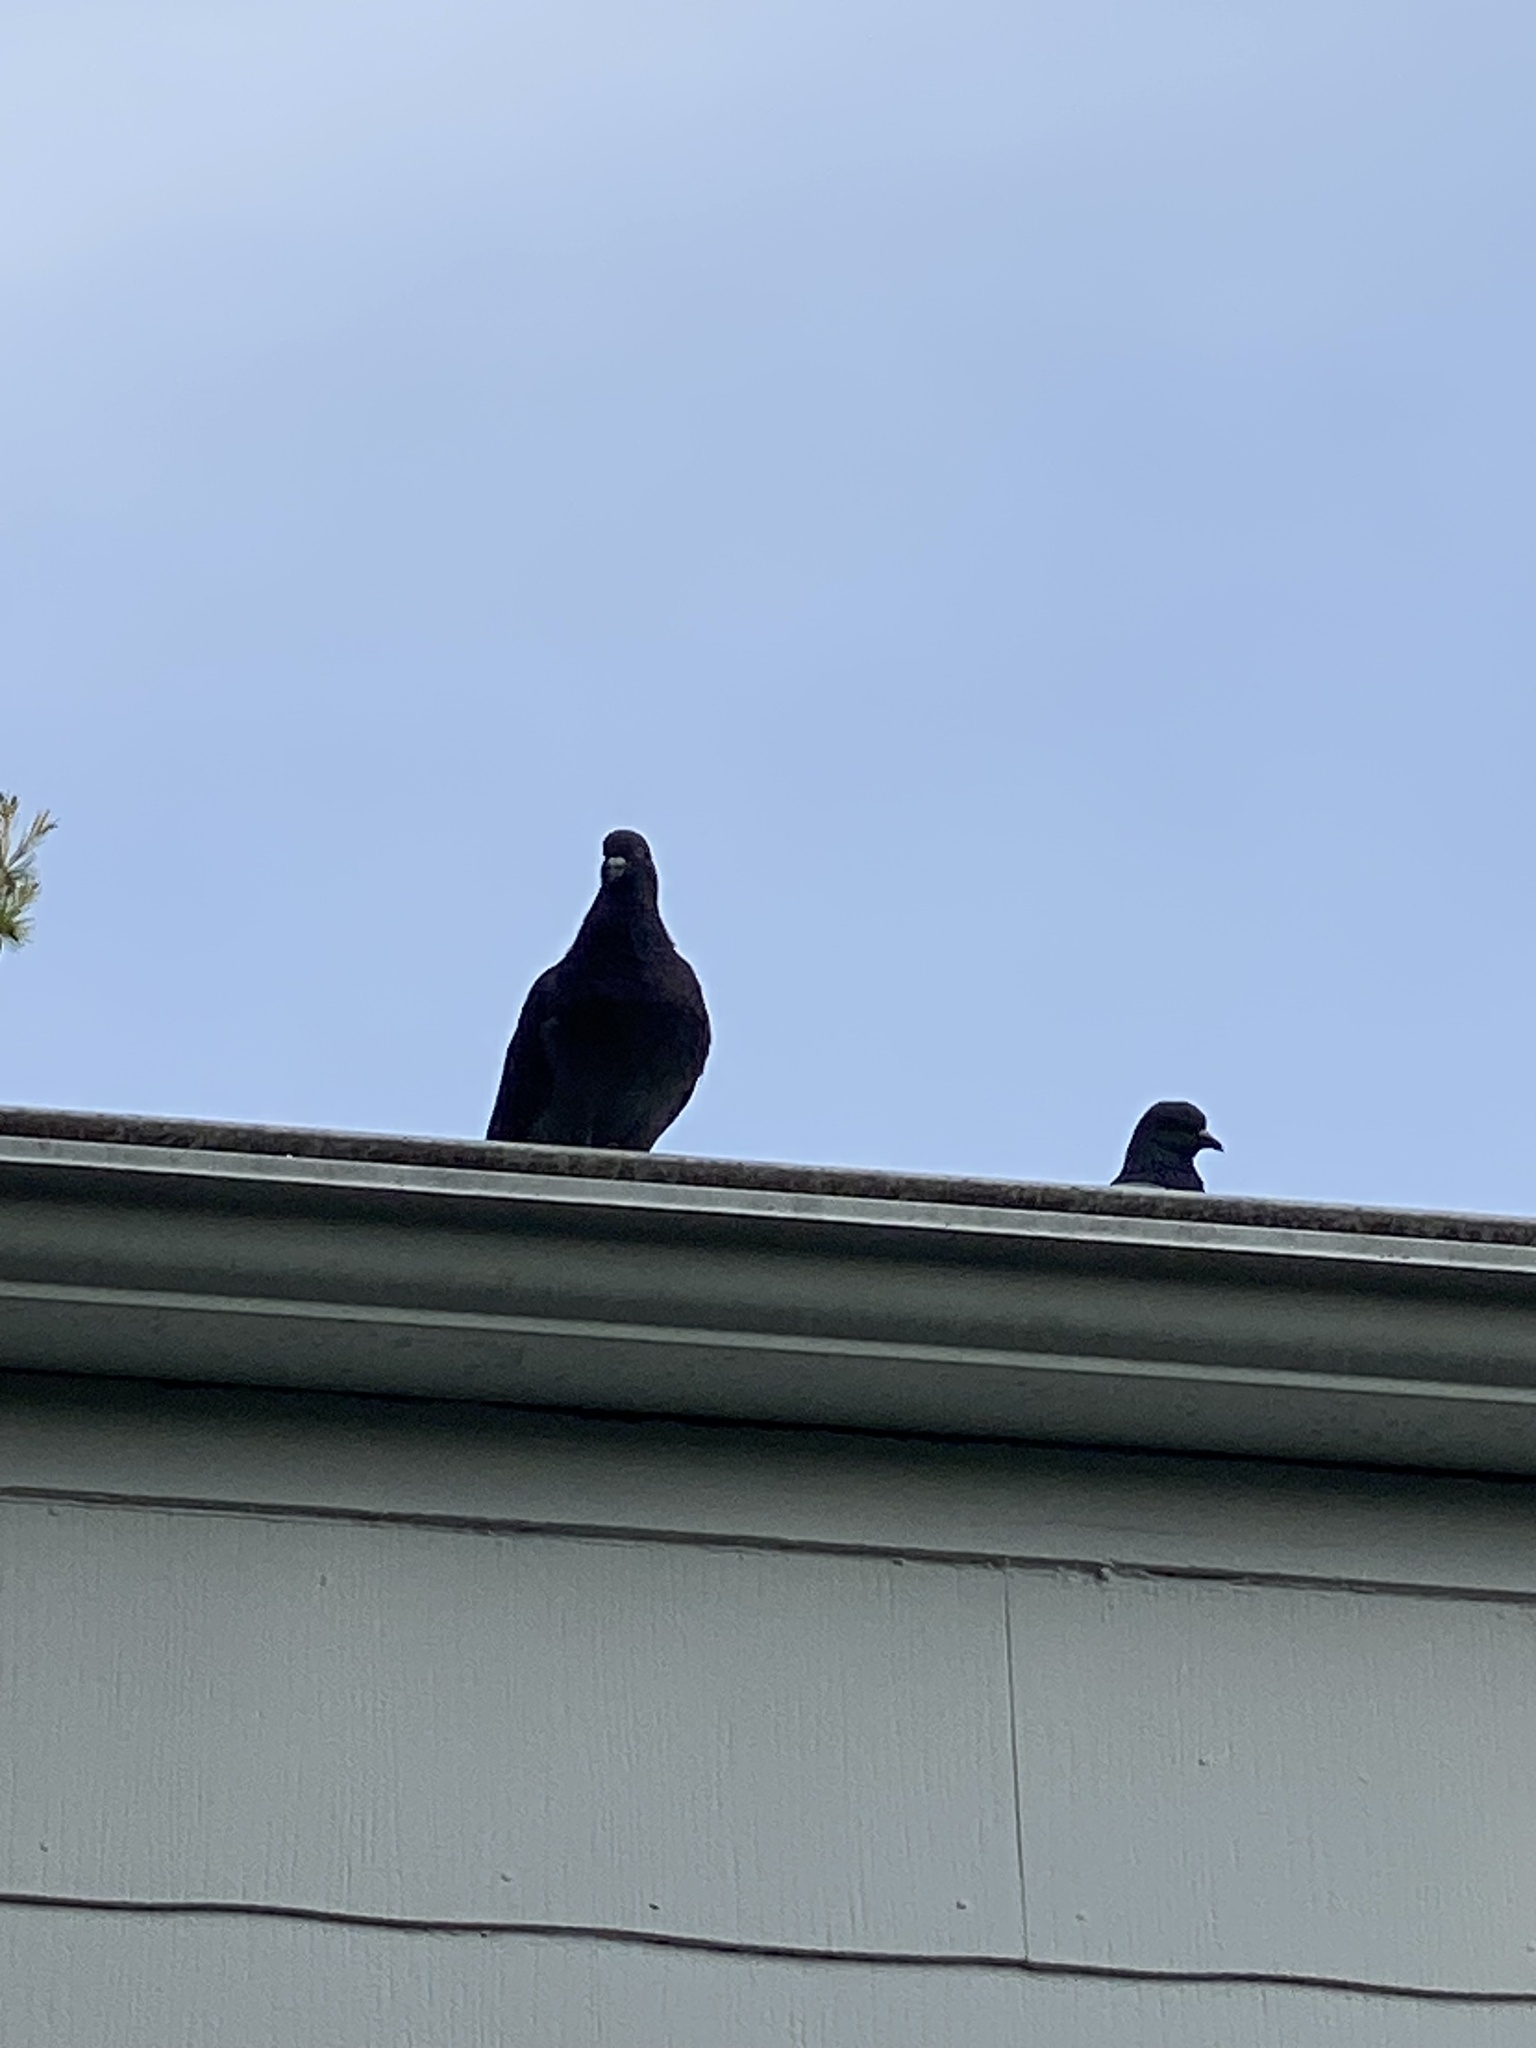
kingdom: Animalia
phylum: Chordata
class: Aves
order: Columbiformes
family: Columbidae
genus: Columba
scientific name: Columba livia
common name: Rock pigeon
